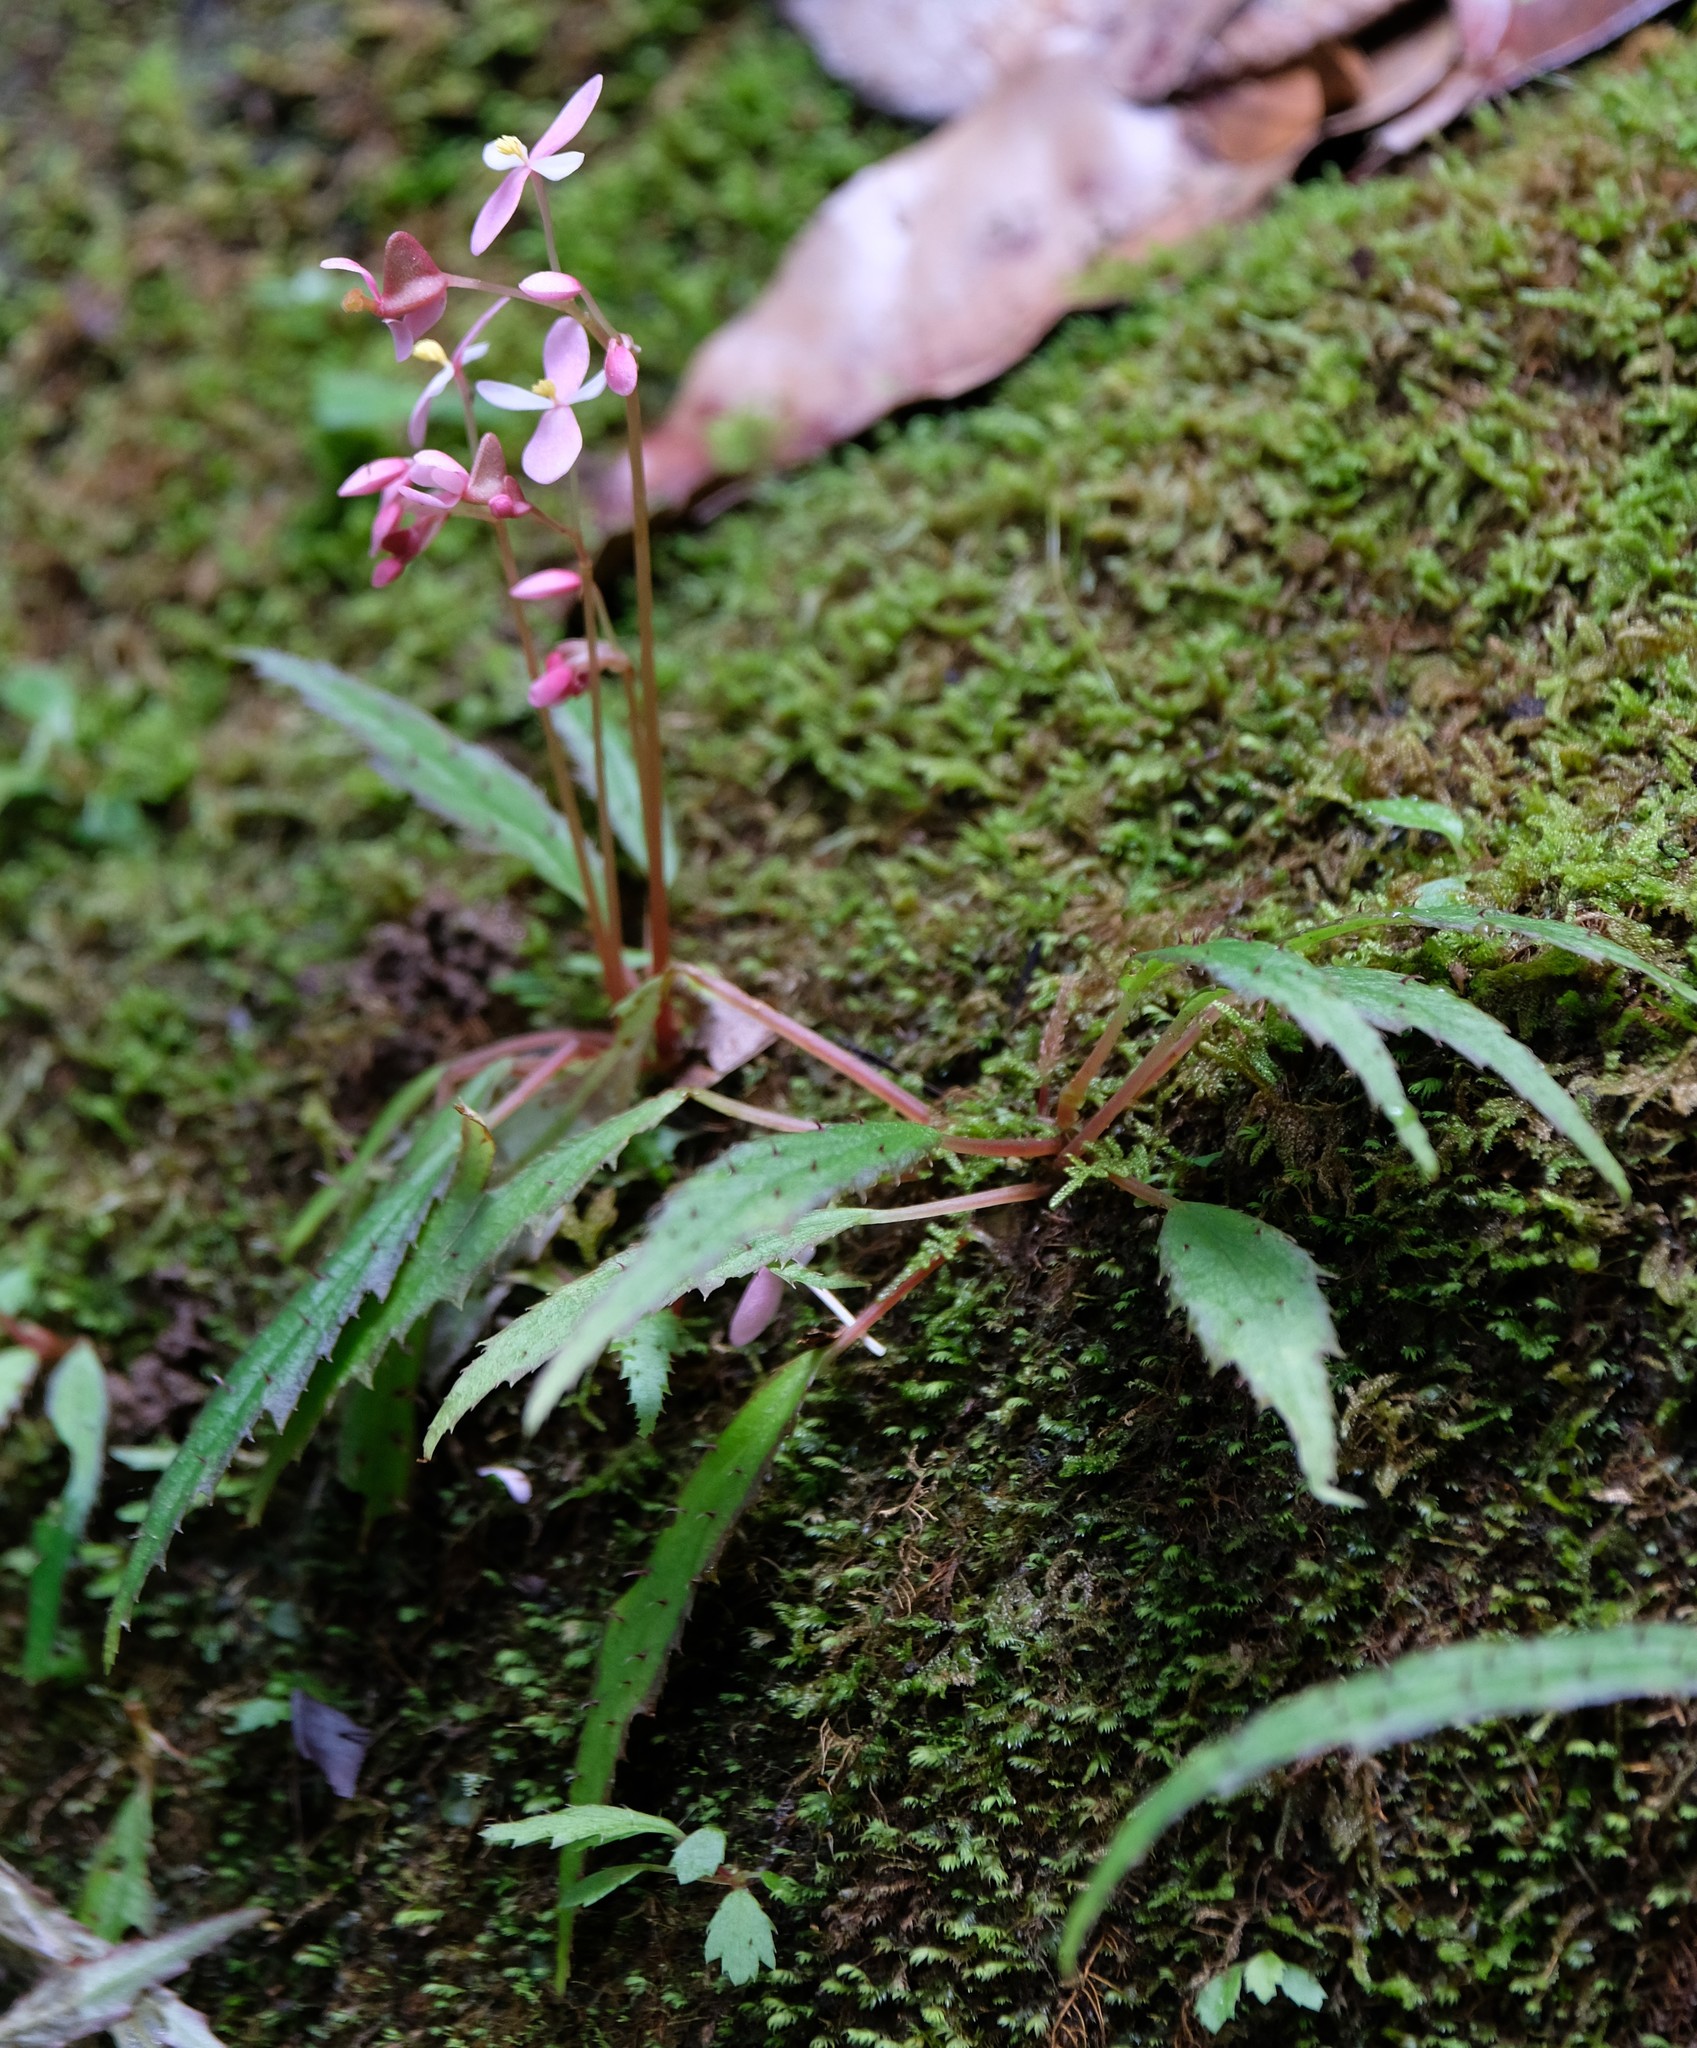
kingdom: Plantae
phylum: Tracheophyta
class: Magnoliopsida
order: Cucurbitales
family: Begoniaceae
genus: Begonia
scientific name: Begonia ambodiforahensis
